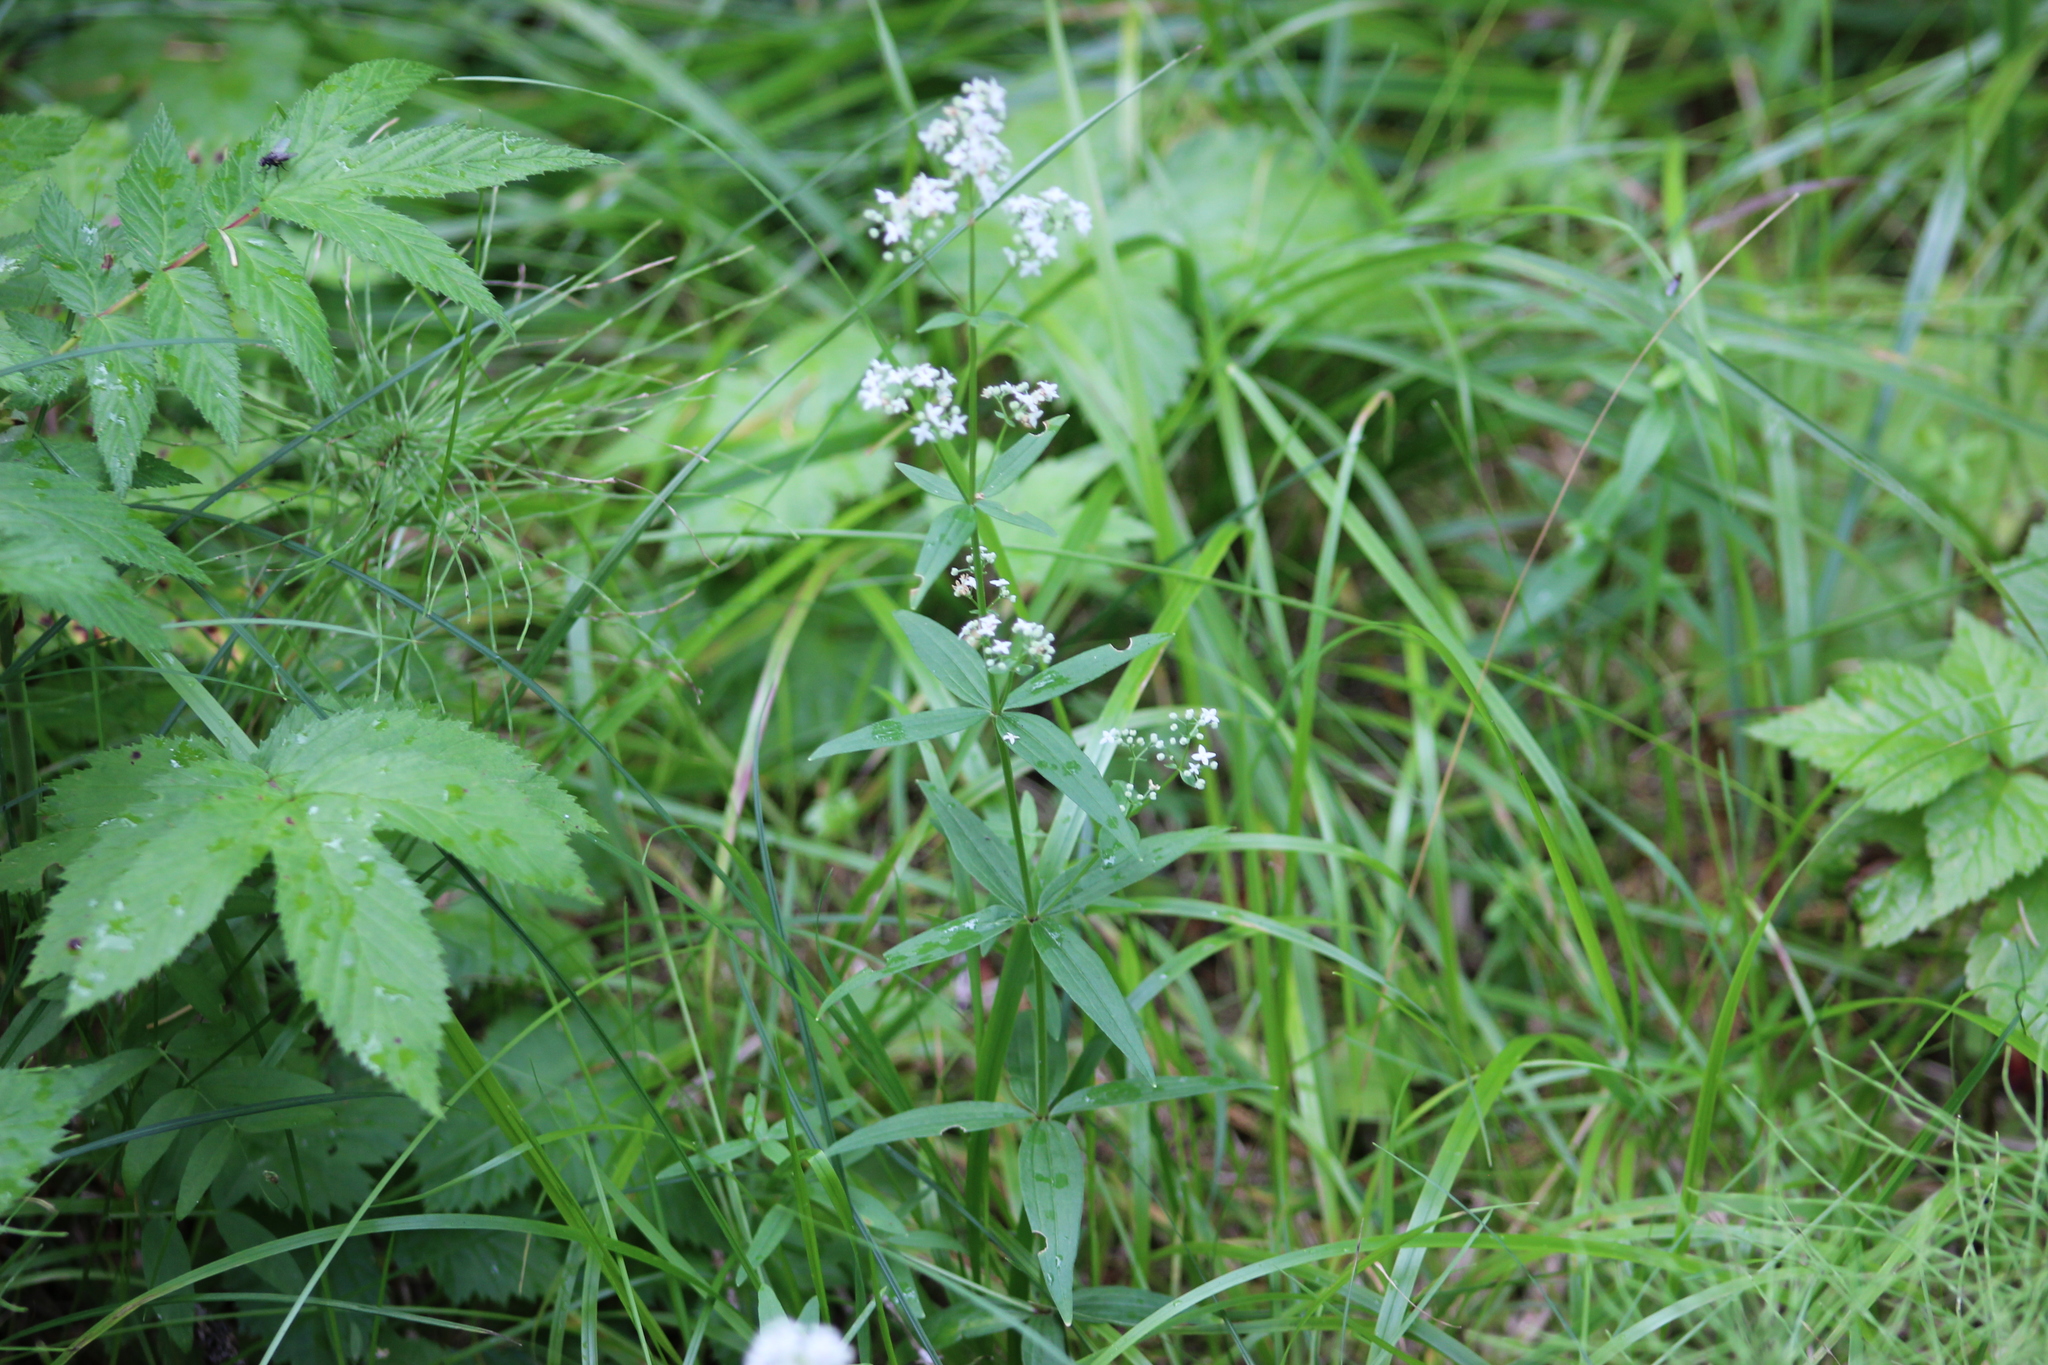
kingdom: Plantae
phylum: Tracheophyta
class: Magnoliopsida
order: Gentianales
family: Rubiaceae
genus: Galium
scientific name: Galium boreale
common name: Northern bedstraw
